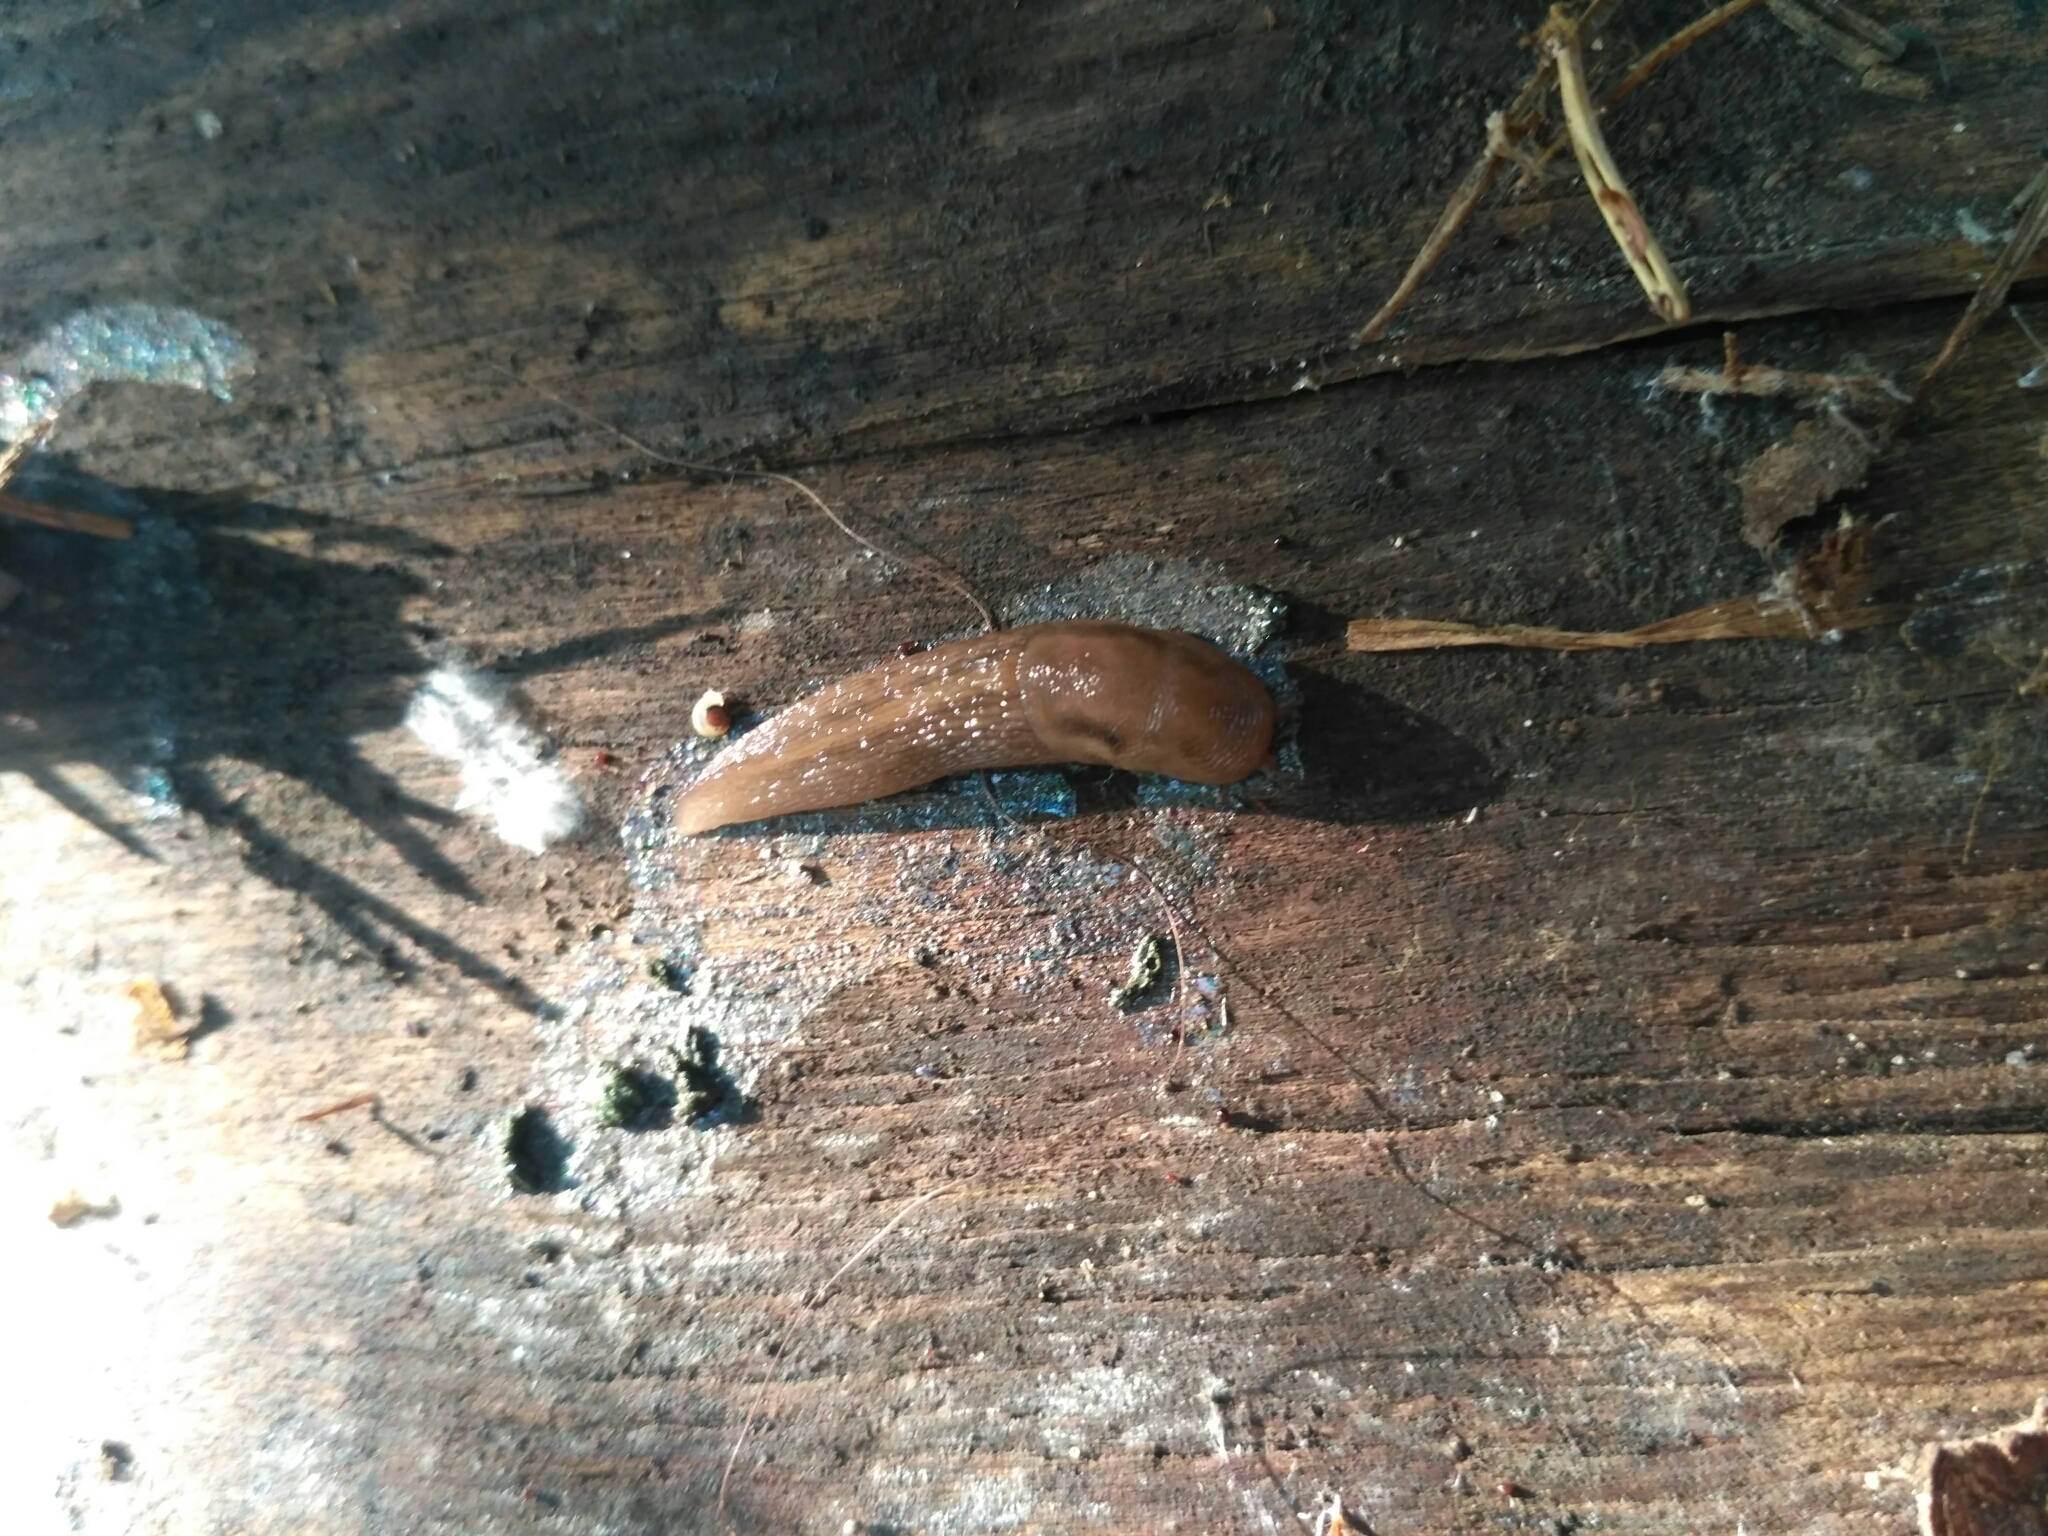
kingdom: Animalia
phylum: Mollusca
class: Gastropoda
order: Stylommatophora
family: Limacidae
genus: Lehmannia
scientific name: Lehmannia marginata
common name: Tree slug
